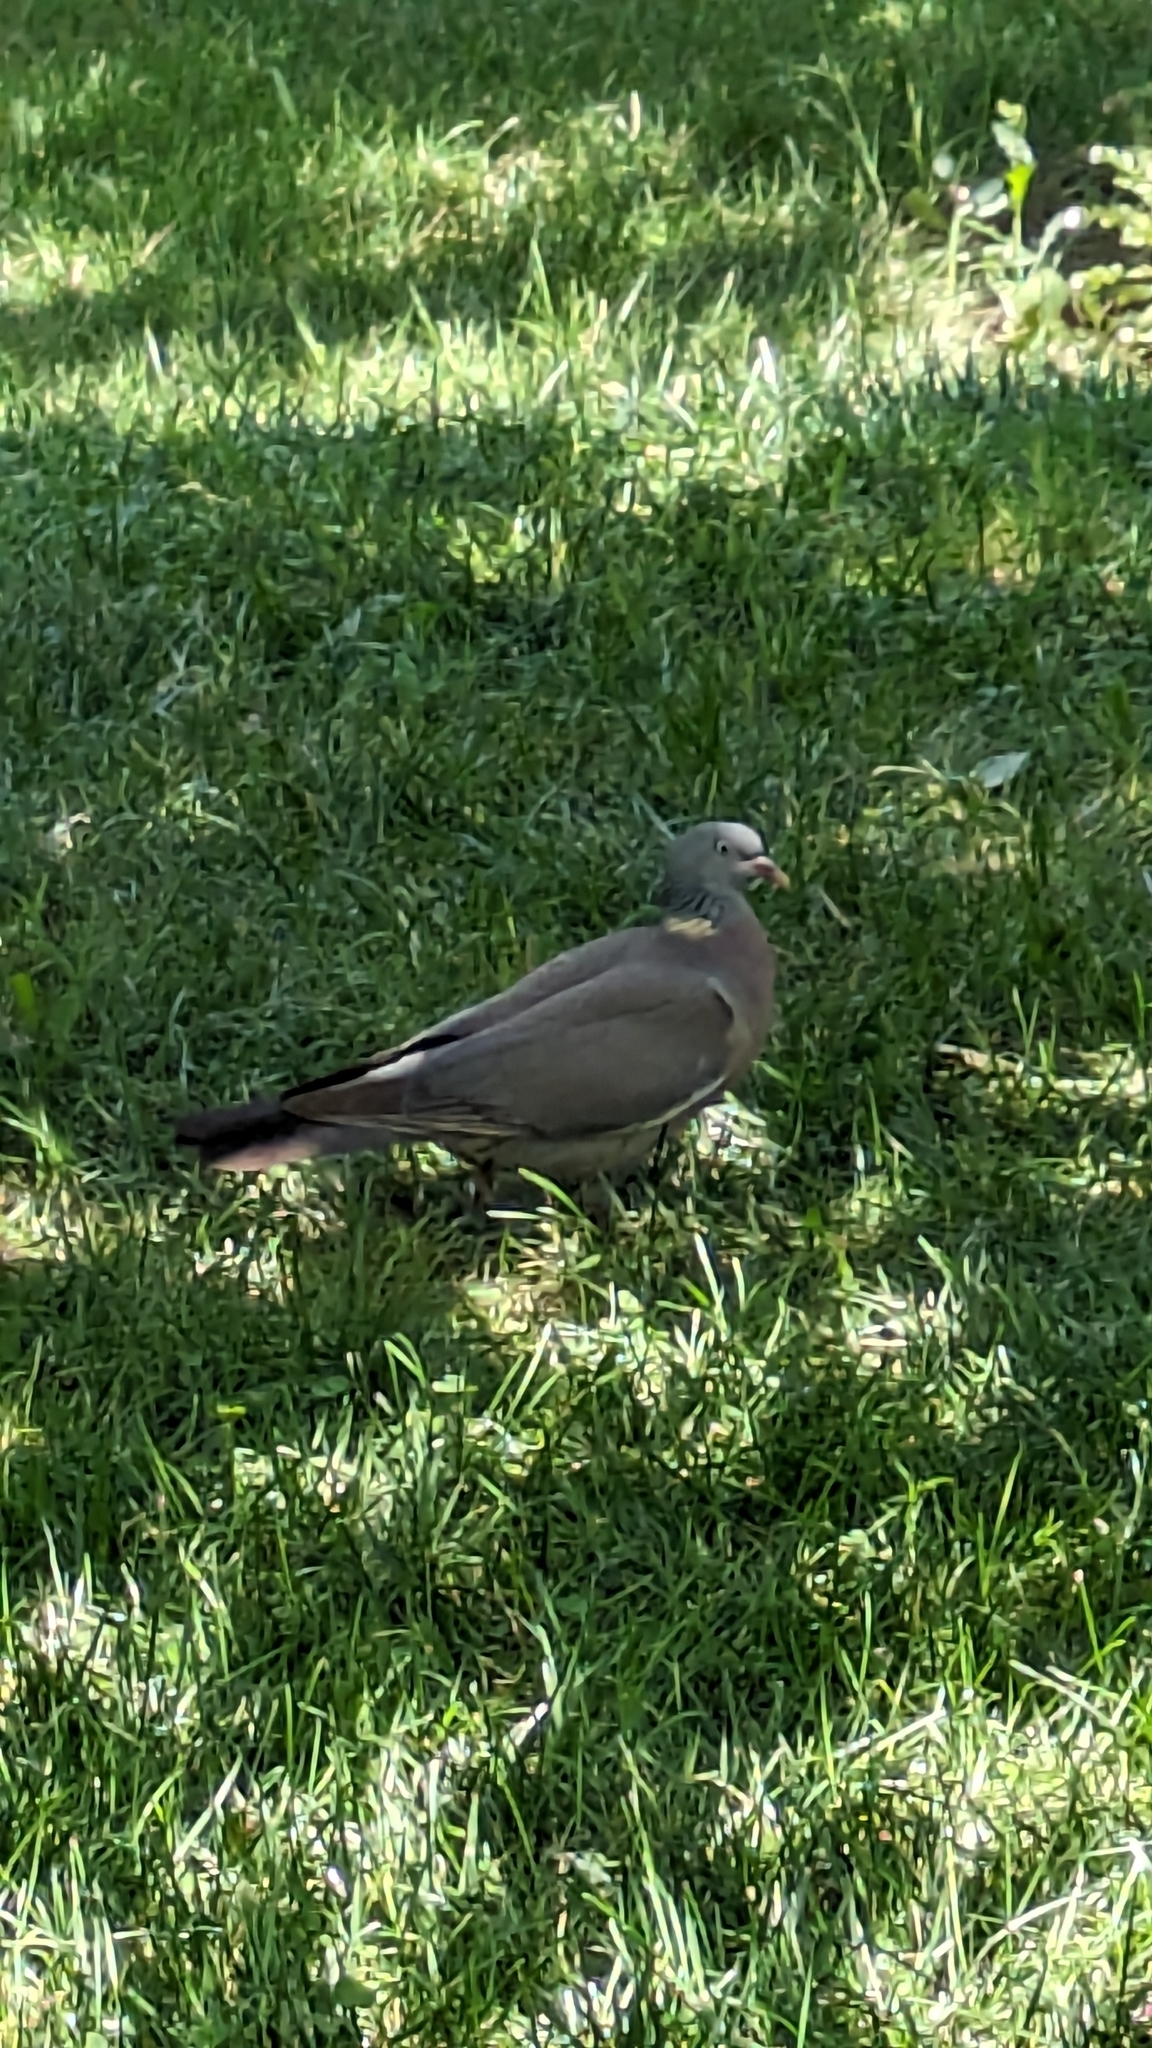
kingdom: Animalia
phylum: Chordata
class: Aves
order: Columbiformes
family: Columbidae
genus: Columba
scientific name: Columba palumbus
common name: Common wood pigeon
